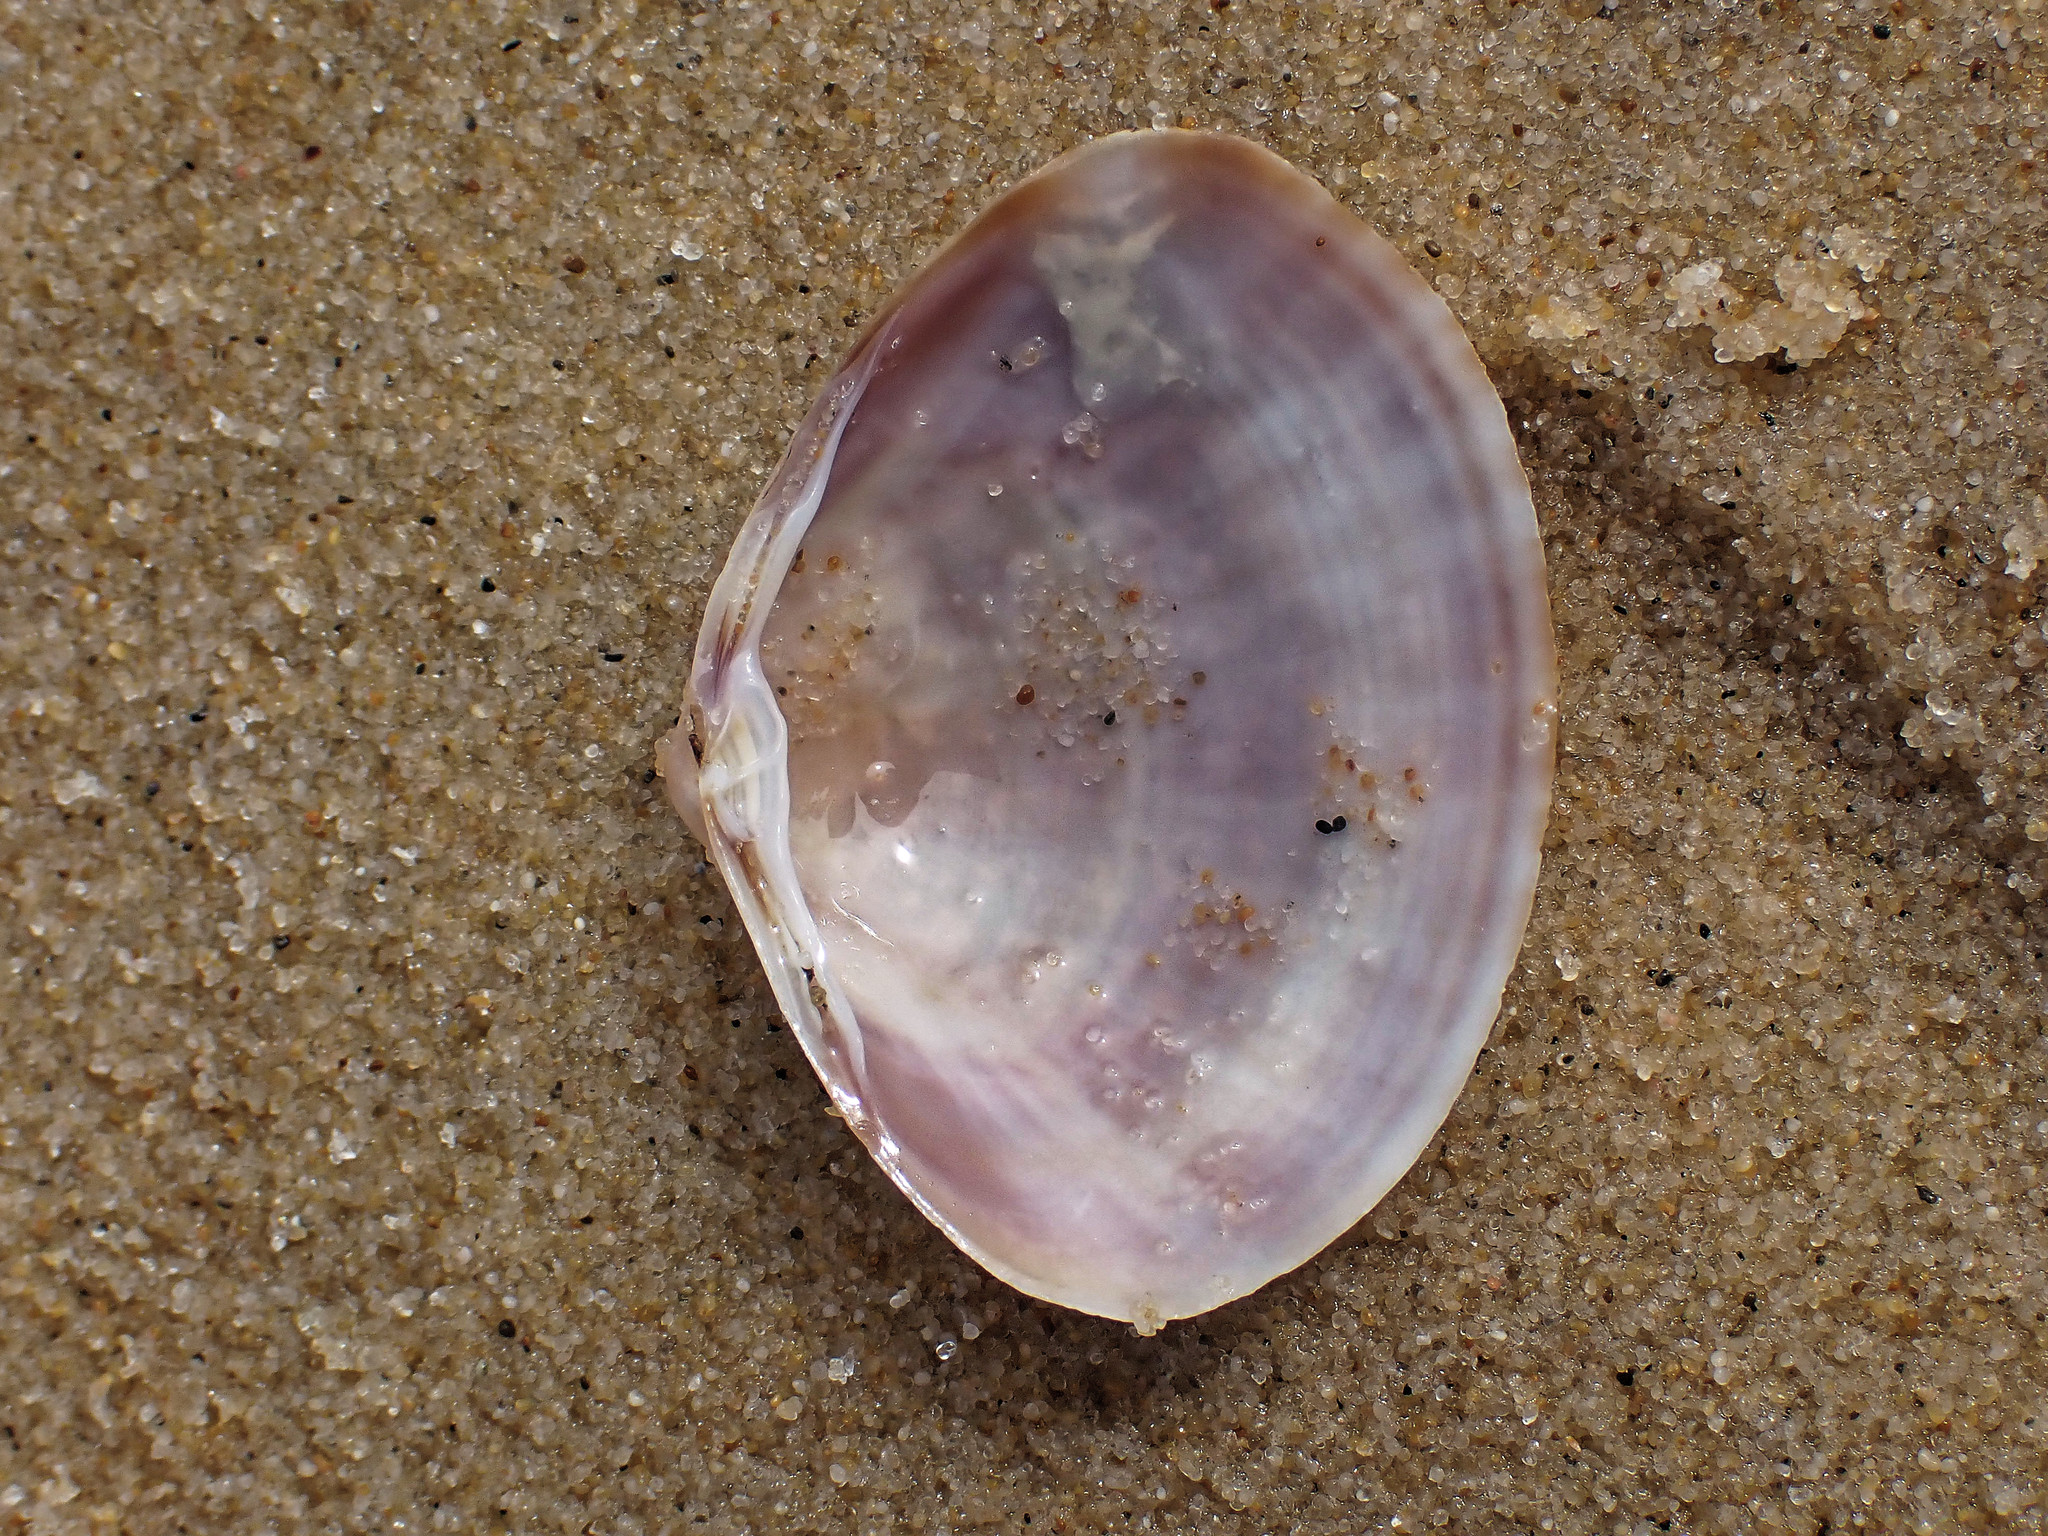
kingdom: Animalia
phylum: Mollusca
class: Bivalvia
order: Venerida
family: Mactridae
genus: Mactra
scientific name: Mactra stultorum
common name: Rayed trough shell
